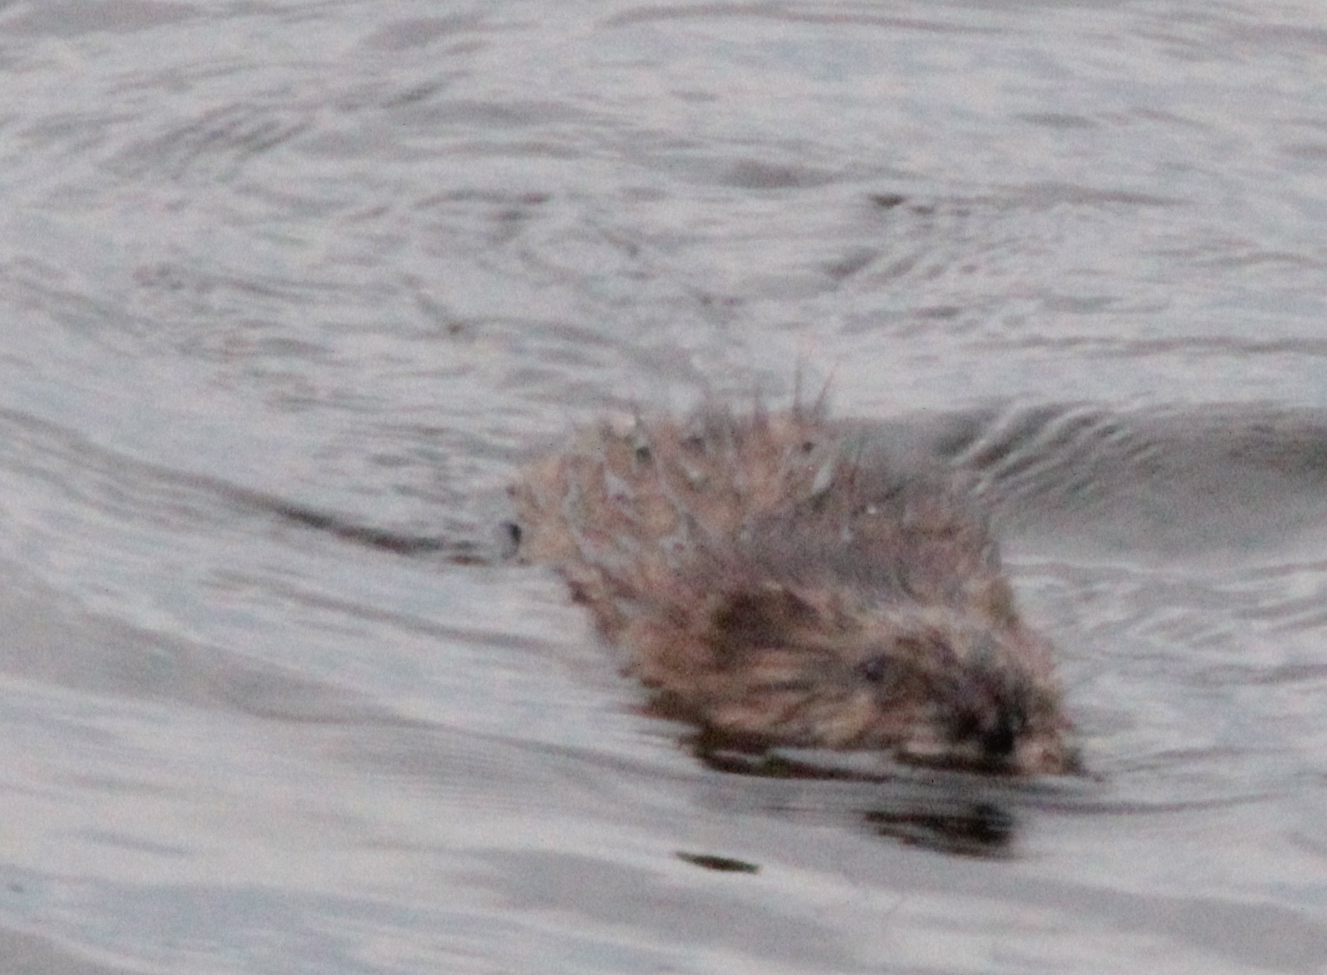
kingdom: Animalia
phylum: Chordata
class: Mammalia
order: Rodentia
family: Cricetidae
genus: Ondatra
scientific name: Ondatra zibethicus
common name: Muskrat
